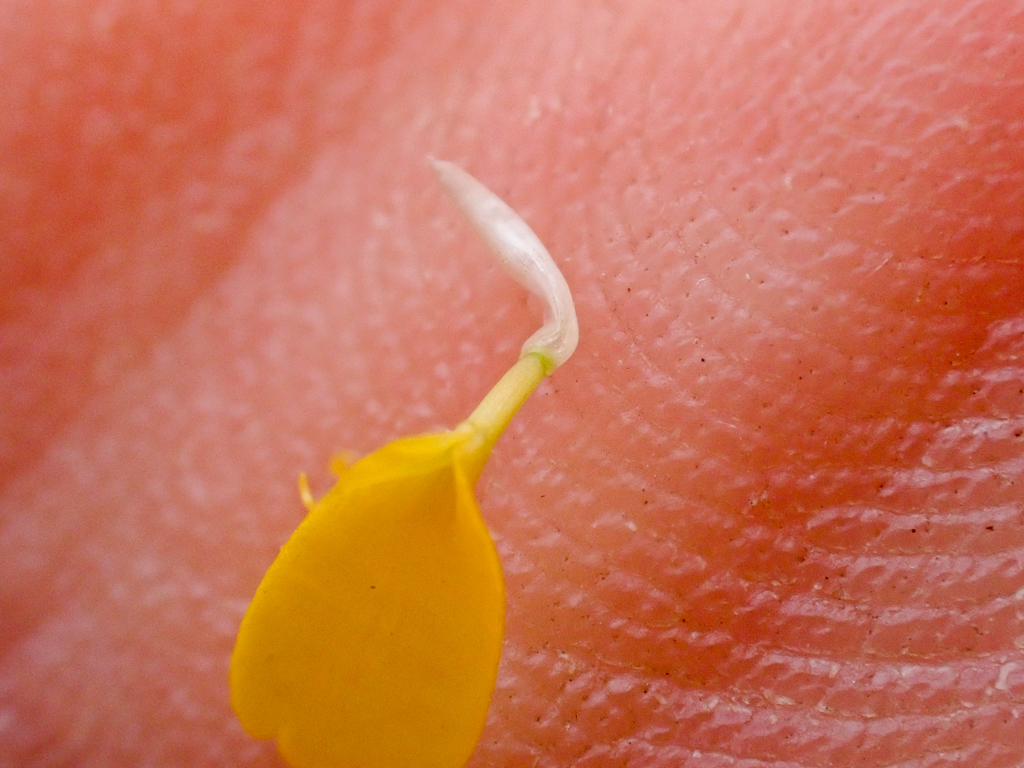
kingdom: Plantae
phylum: Tracheophyta
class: Magnoliopsida
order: Asterales
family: Asteraceae
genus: Layia
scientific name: Layia gaillardioides
